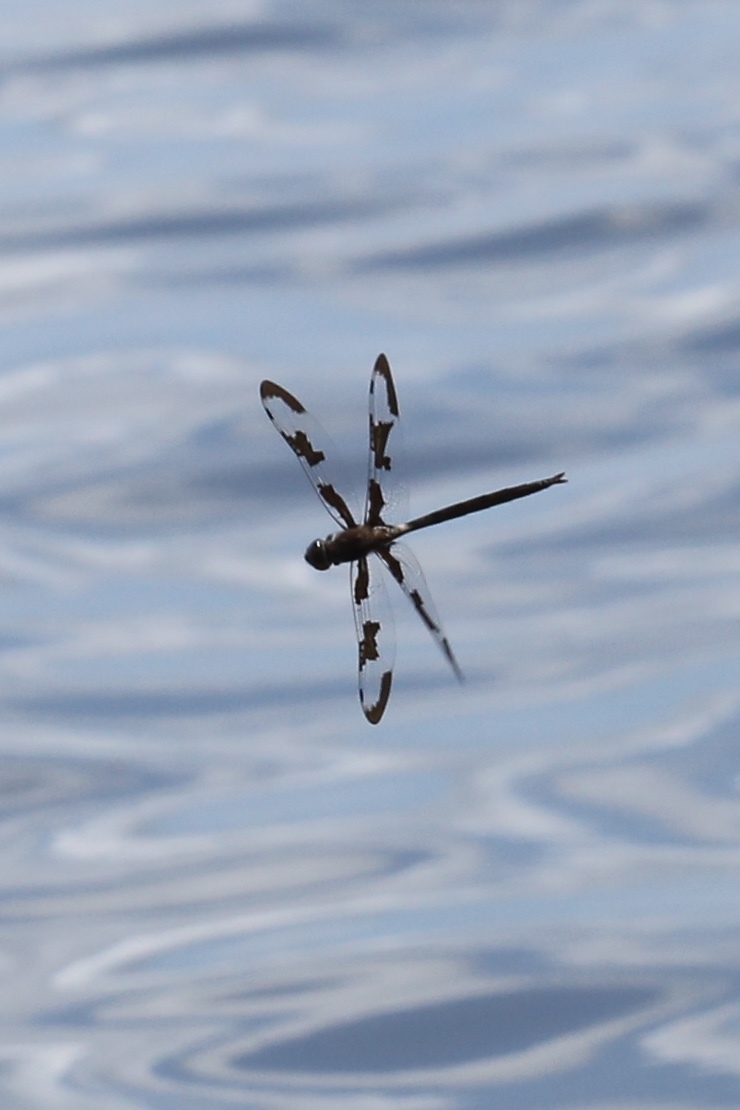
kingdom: Animalia
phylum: Arthropoda
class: Insecta
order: Odonata
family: Corduliidae
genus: Epitheca
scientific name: Epitheca princeps
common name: Prince baskettail
